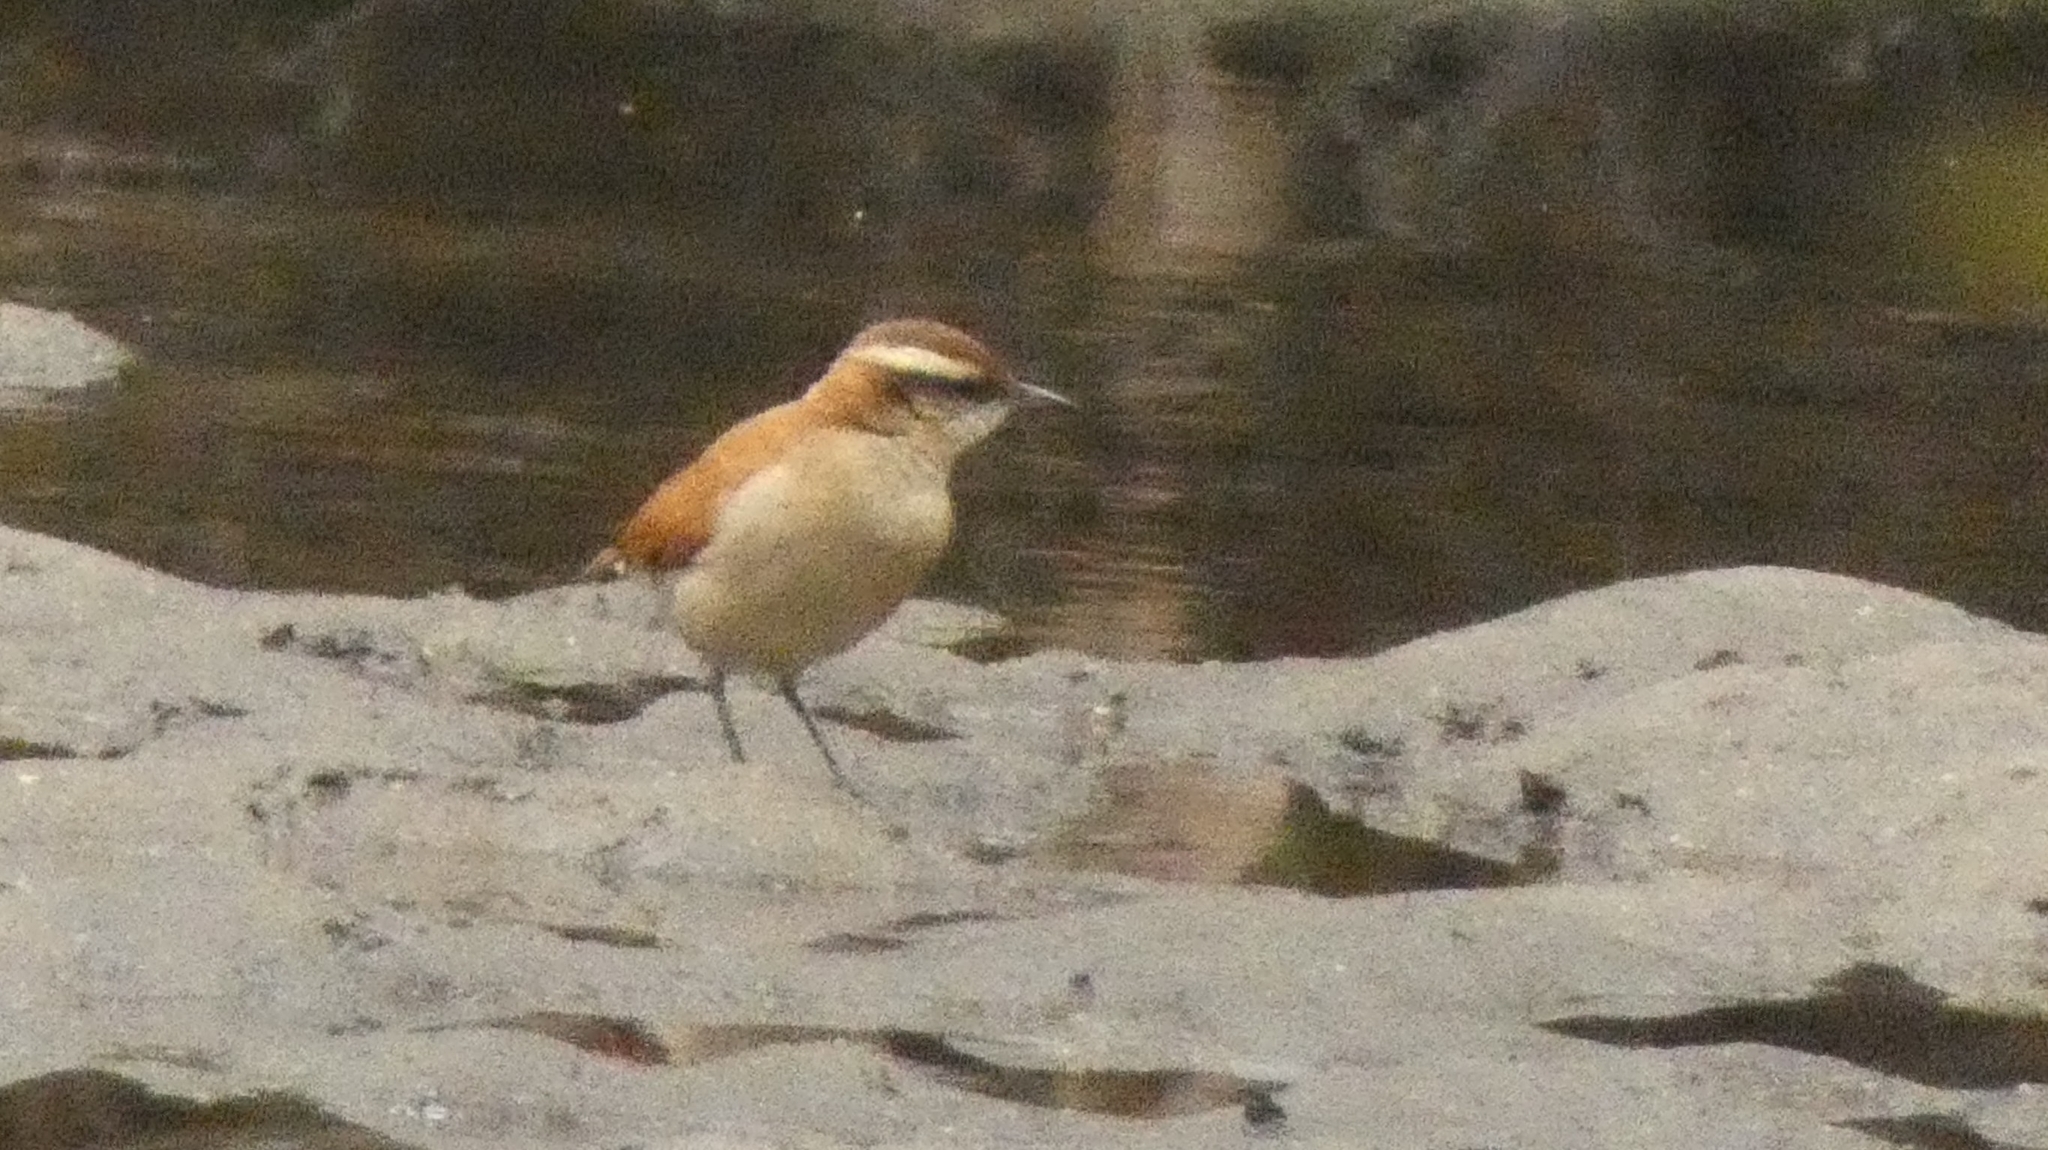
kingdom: Animalia
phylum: Chordata
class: Aves
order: Passeriformes
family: Furnariidae
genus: Furnarius
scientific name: Furnarius figulus
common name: Band-tailed hornero
